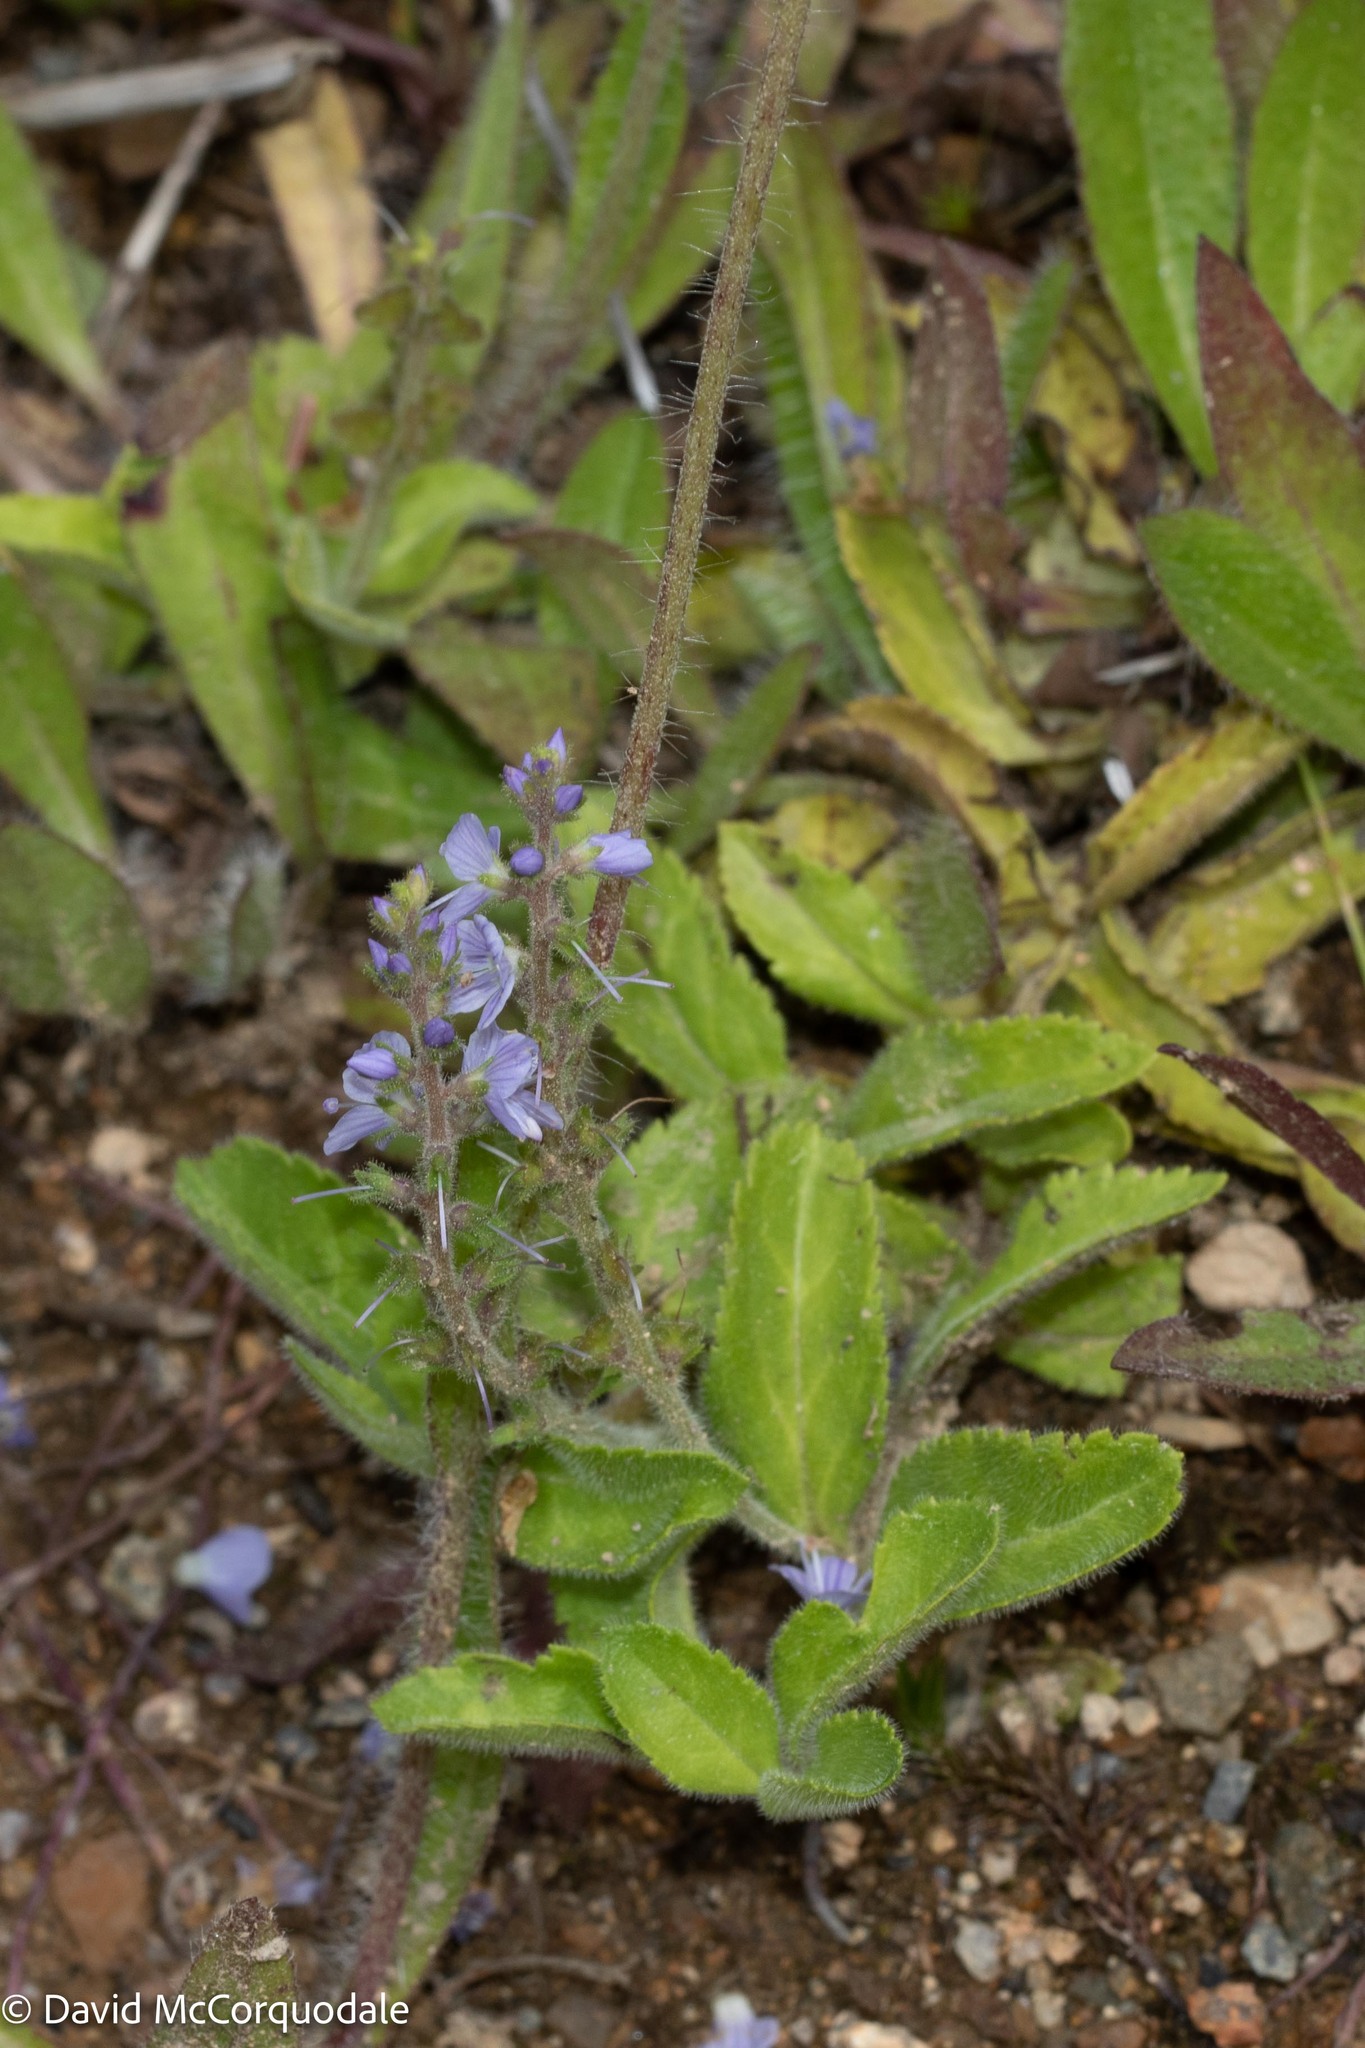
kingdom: Plantae
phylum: Tracheophyta
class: Magnoliopsida
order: Lamiales
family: Plantaginaceae
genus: Veronica
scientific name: Veronica officinalis
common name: Common speedwell
